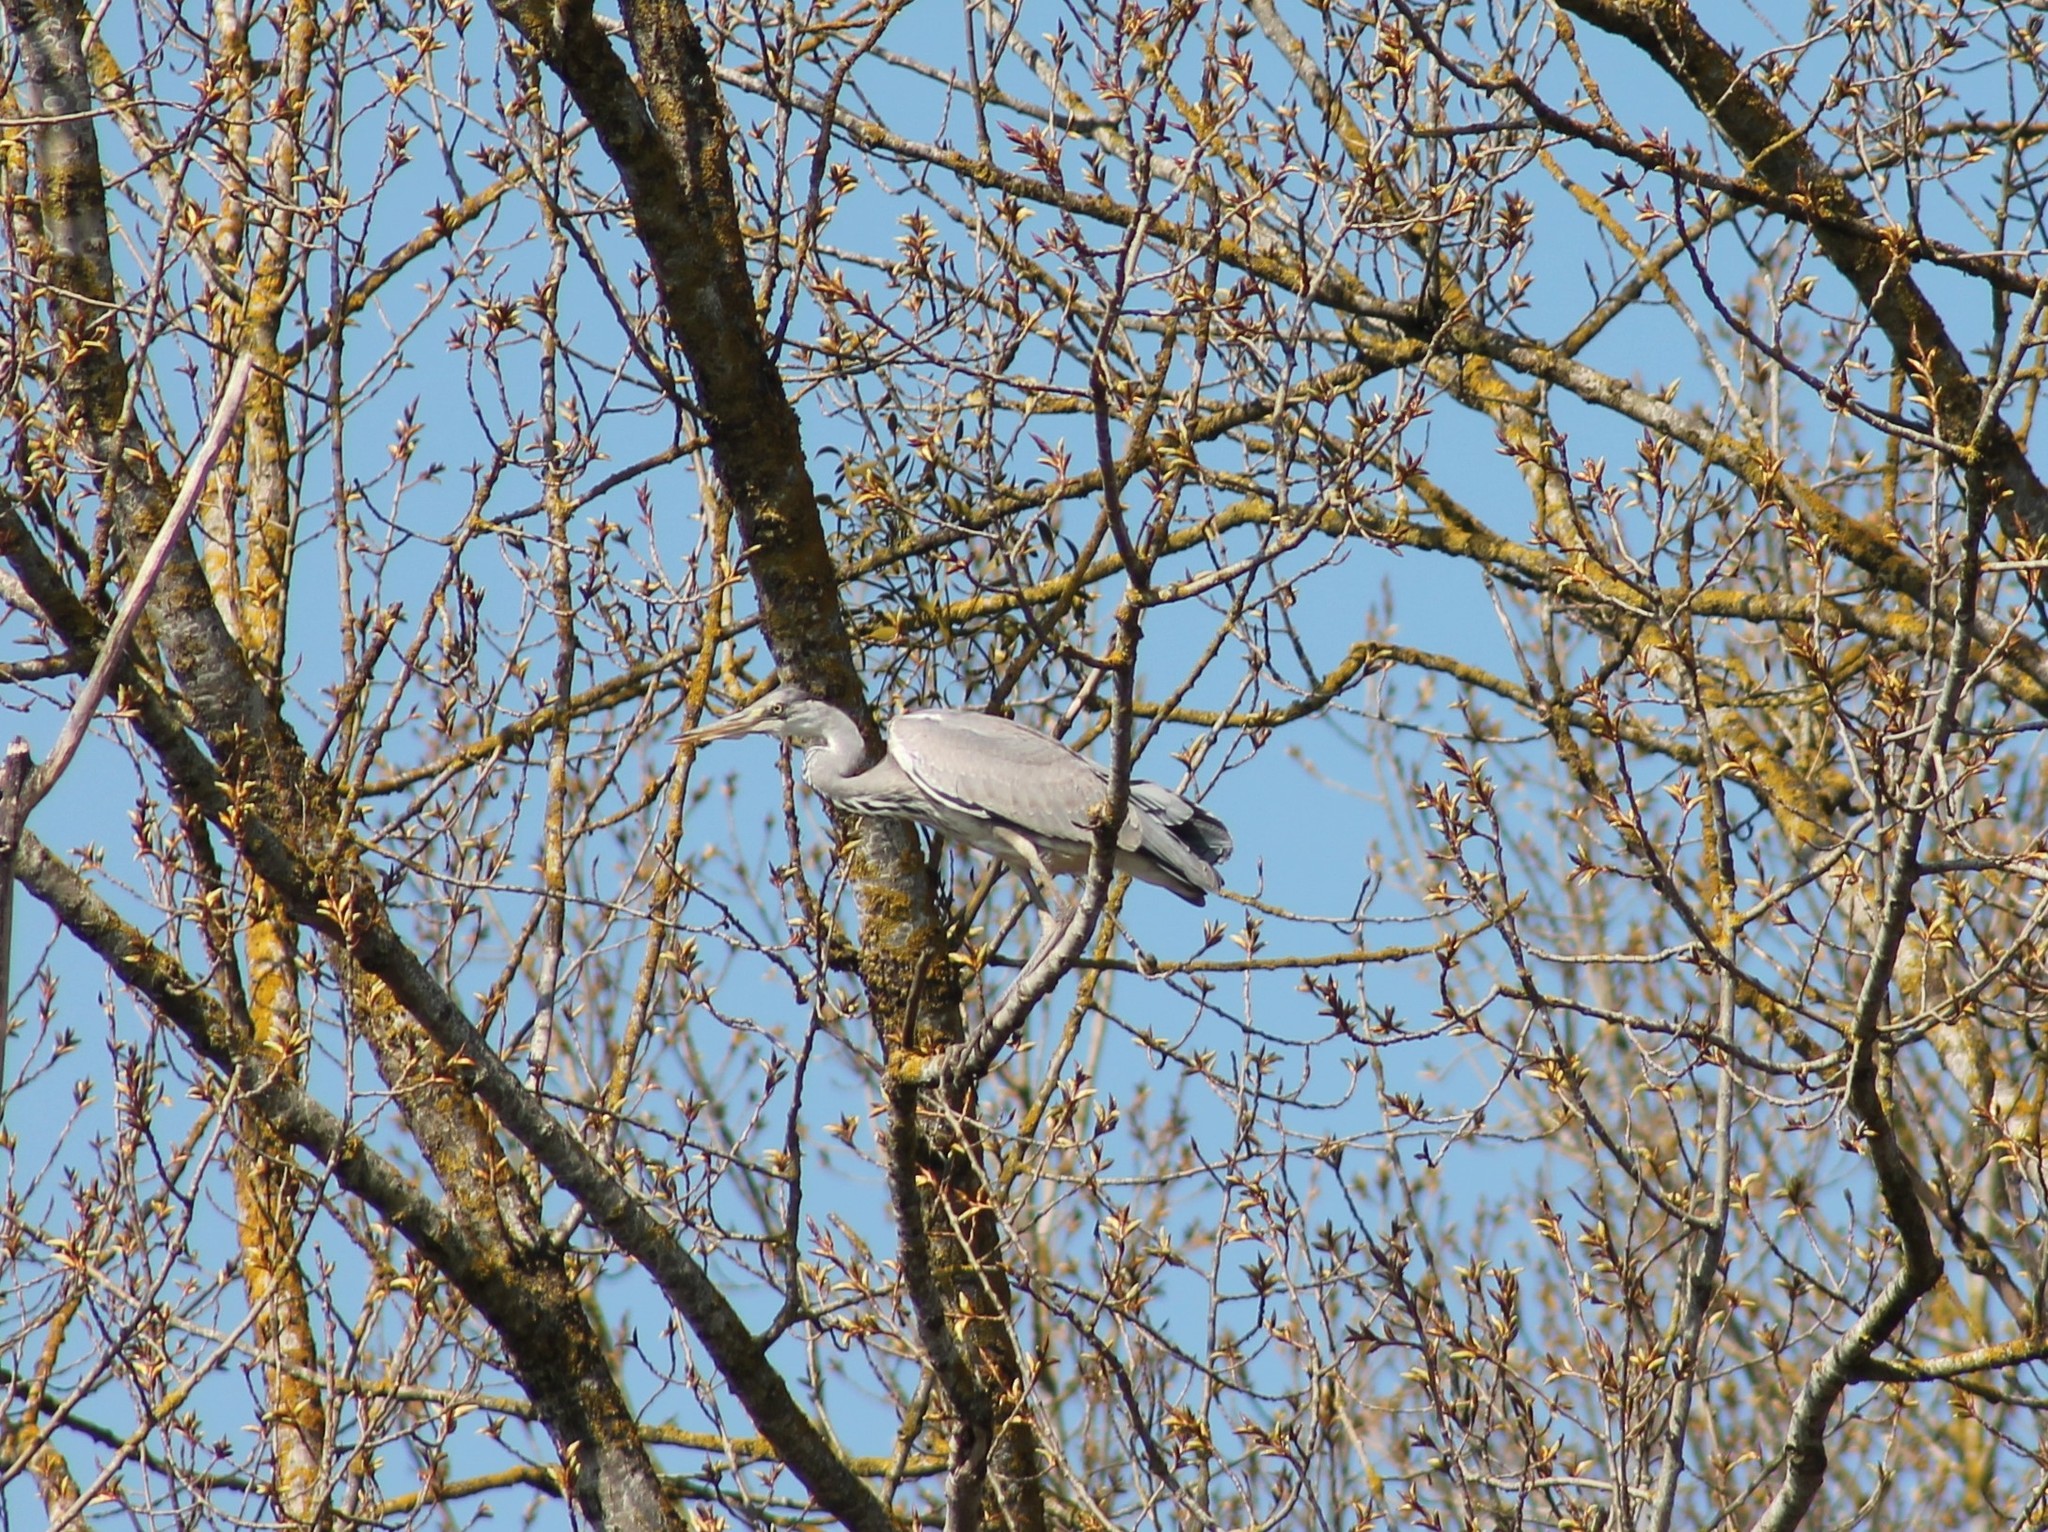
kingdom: Animalia
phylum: Chordata
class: Aves
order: Pelecaniformes
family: Ardeidae
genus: Ardea
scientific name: Ardea cinerea
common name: Grey heron
